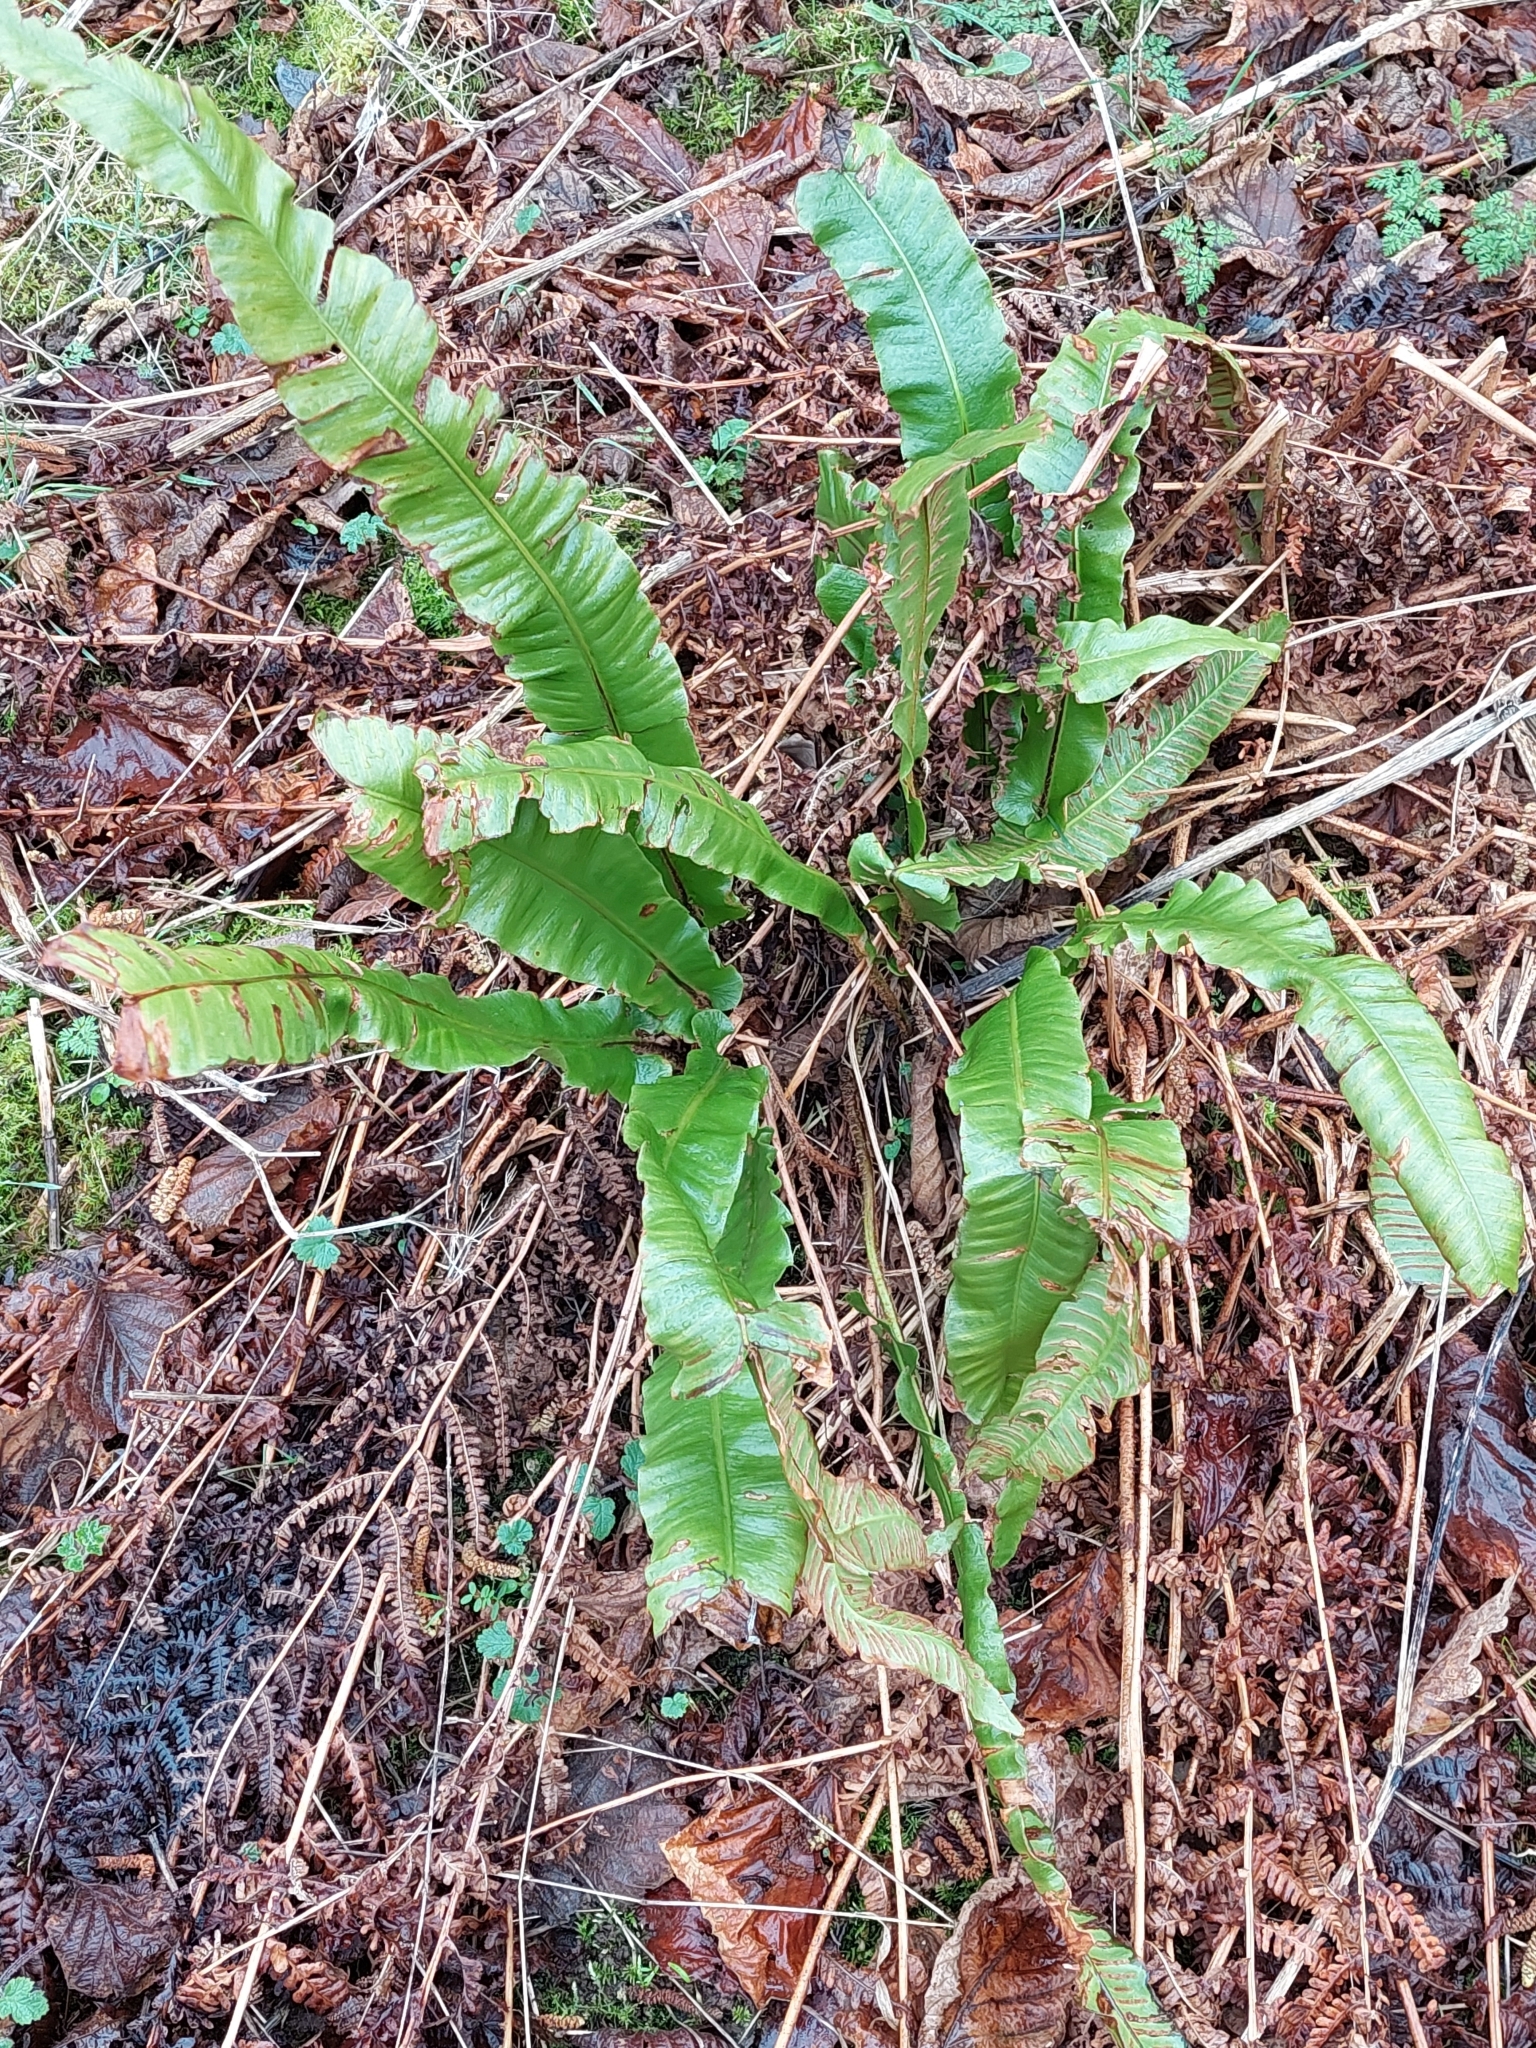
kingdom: Plantae
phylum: Tracheophyta
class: Polypodiopsida
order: Polypodiales
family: Aspleniaceae
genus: Asplenium
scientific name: Asplenium scolopendrium
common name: Hart's-tongue fern
